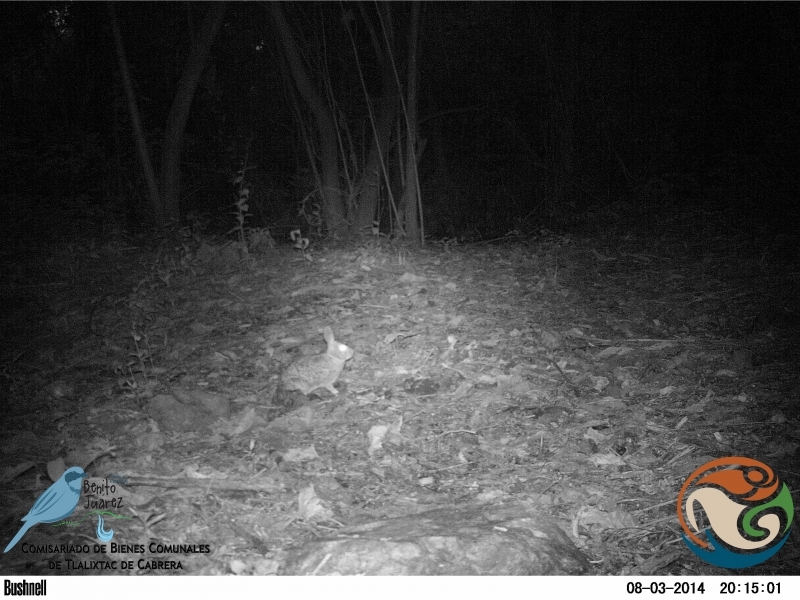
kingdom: Animalia
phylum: Chordata
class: Mammalia
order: Lagomorpha
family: Leporidae
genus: Sylvilagus
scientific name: Sylvilagus floridanus
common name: Eastern cottontail
